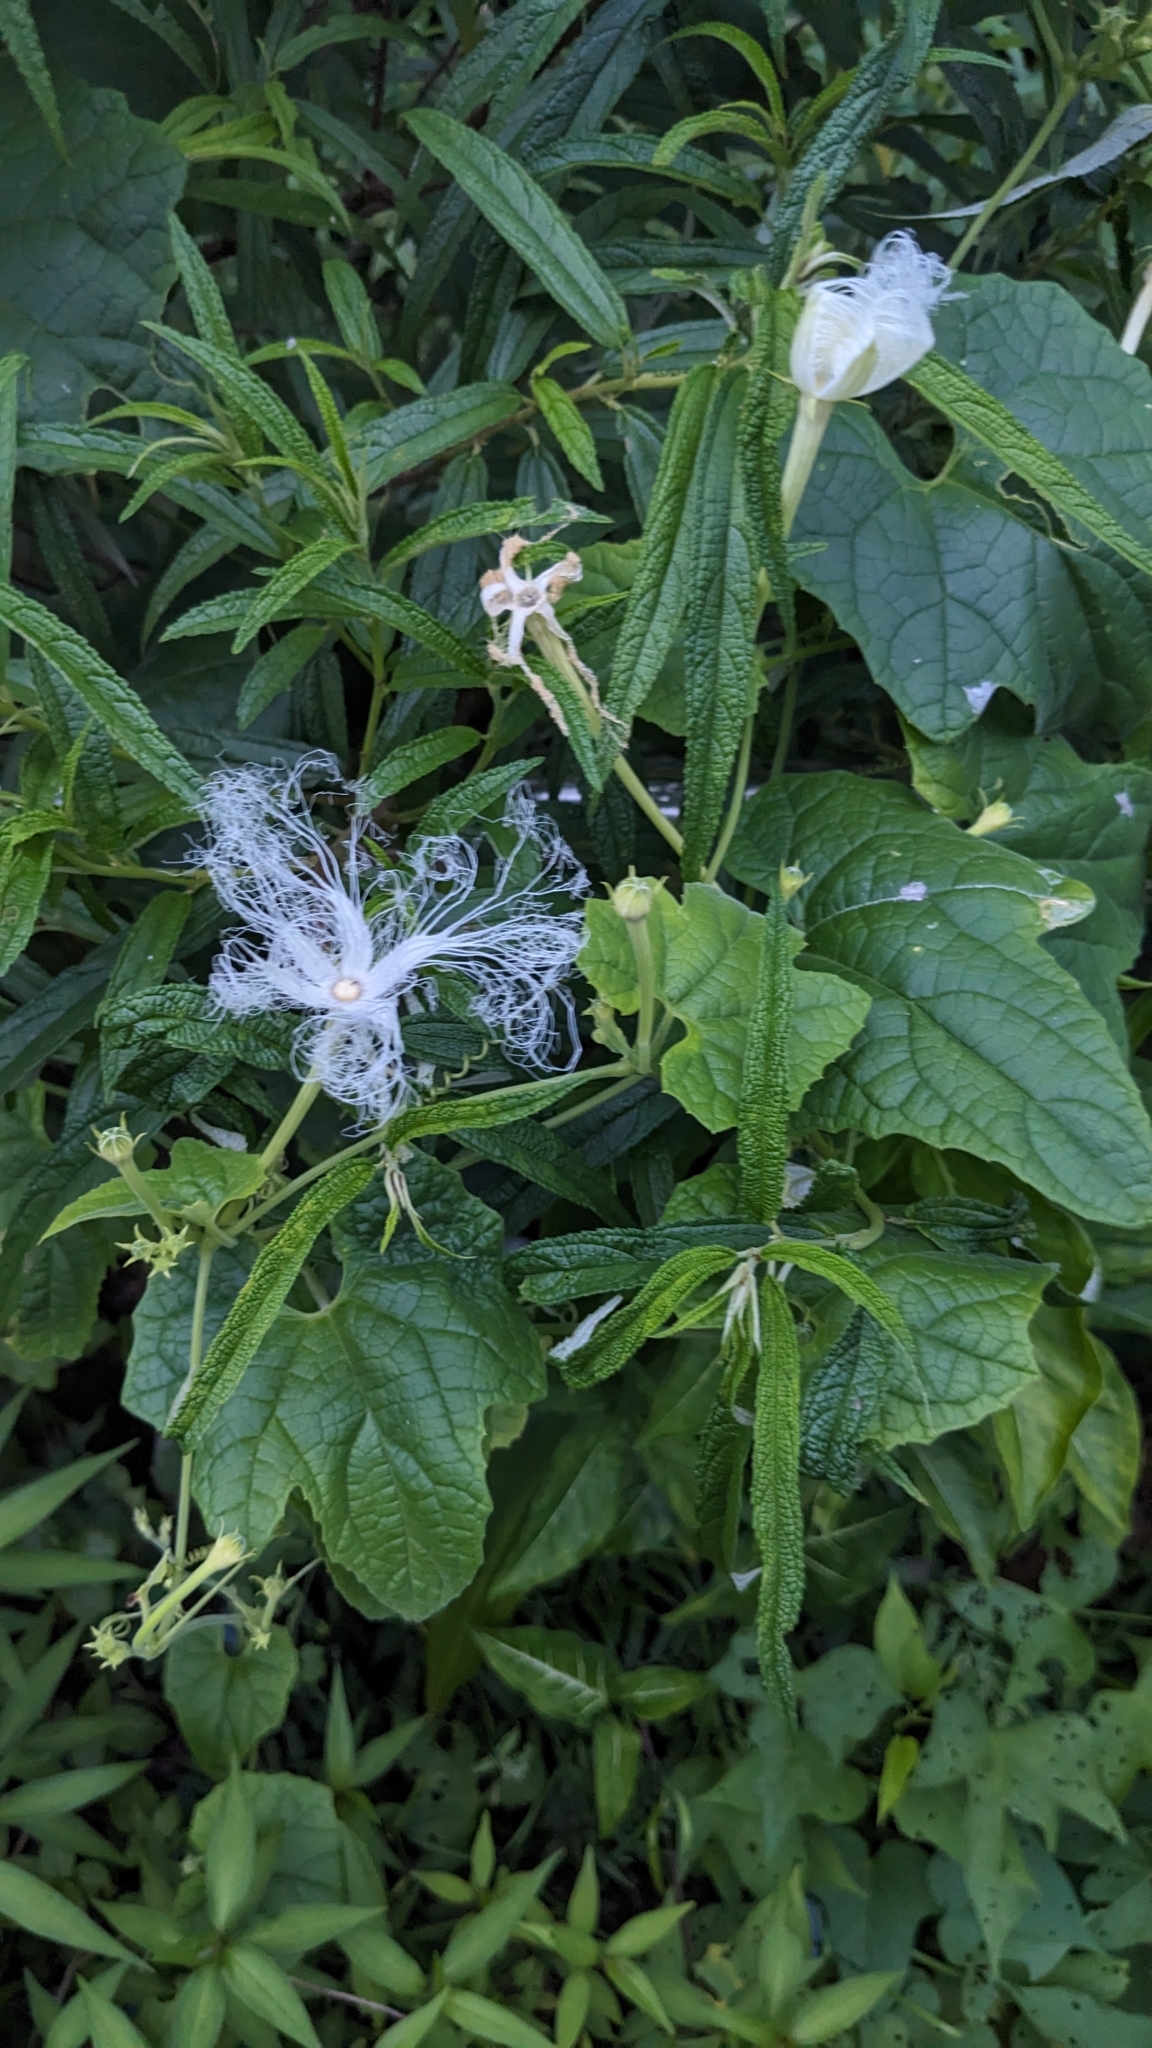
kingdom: Plantae
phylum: Tracheophyta
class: Magnoliopsida
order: Cucurbitales
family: Cucurbitaceae
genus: Trichosanthes
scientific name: Trichosanthes cucumeroides
